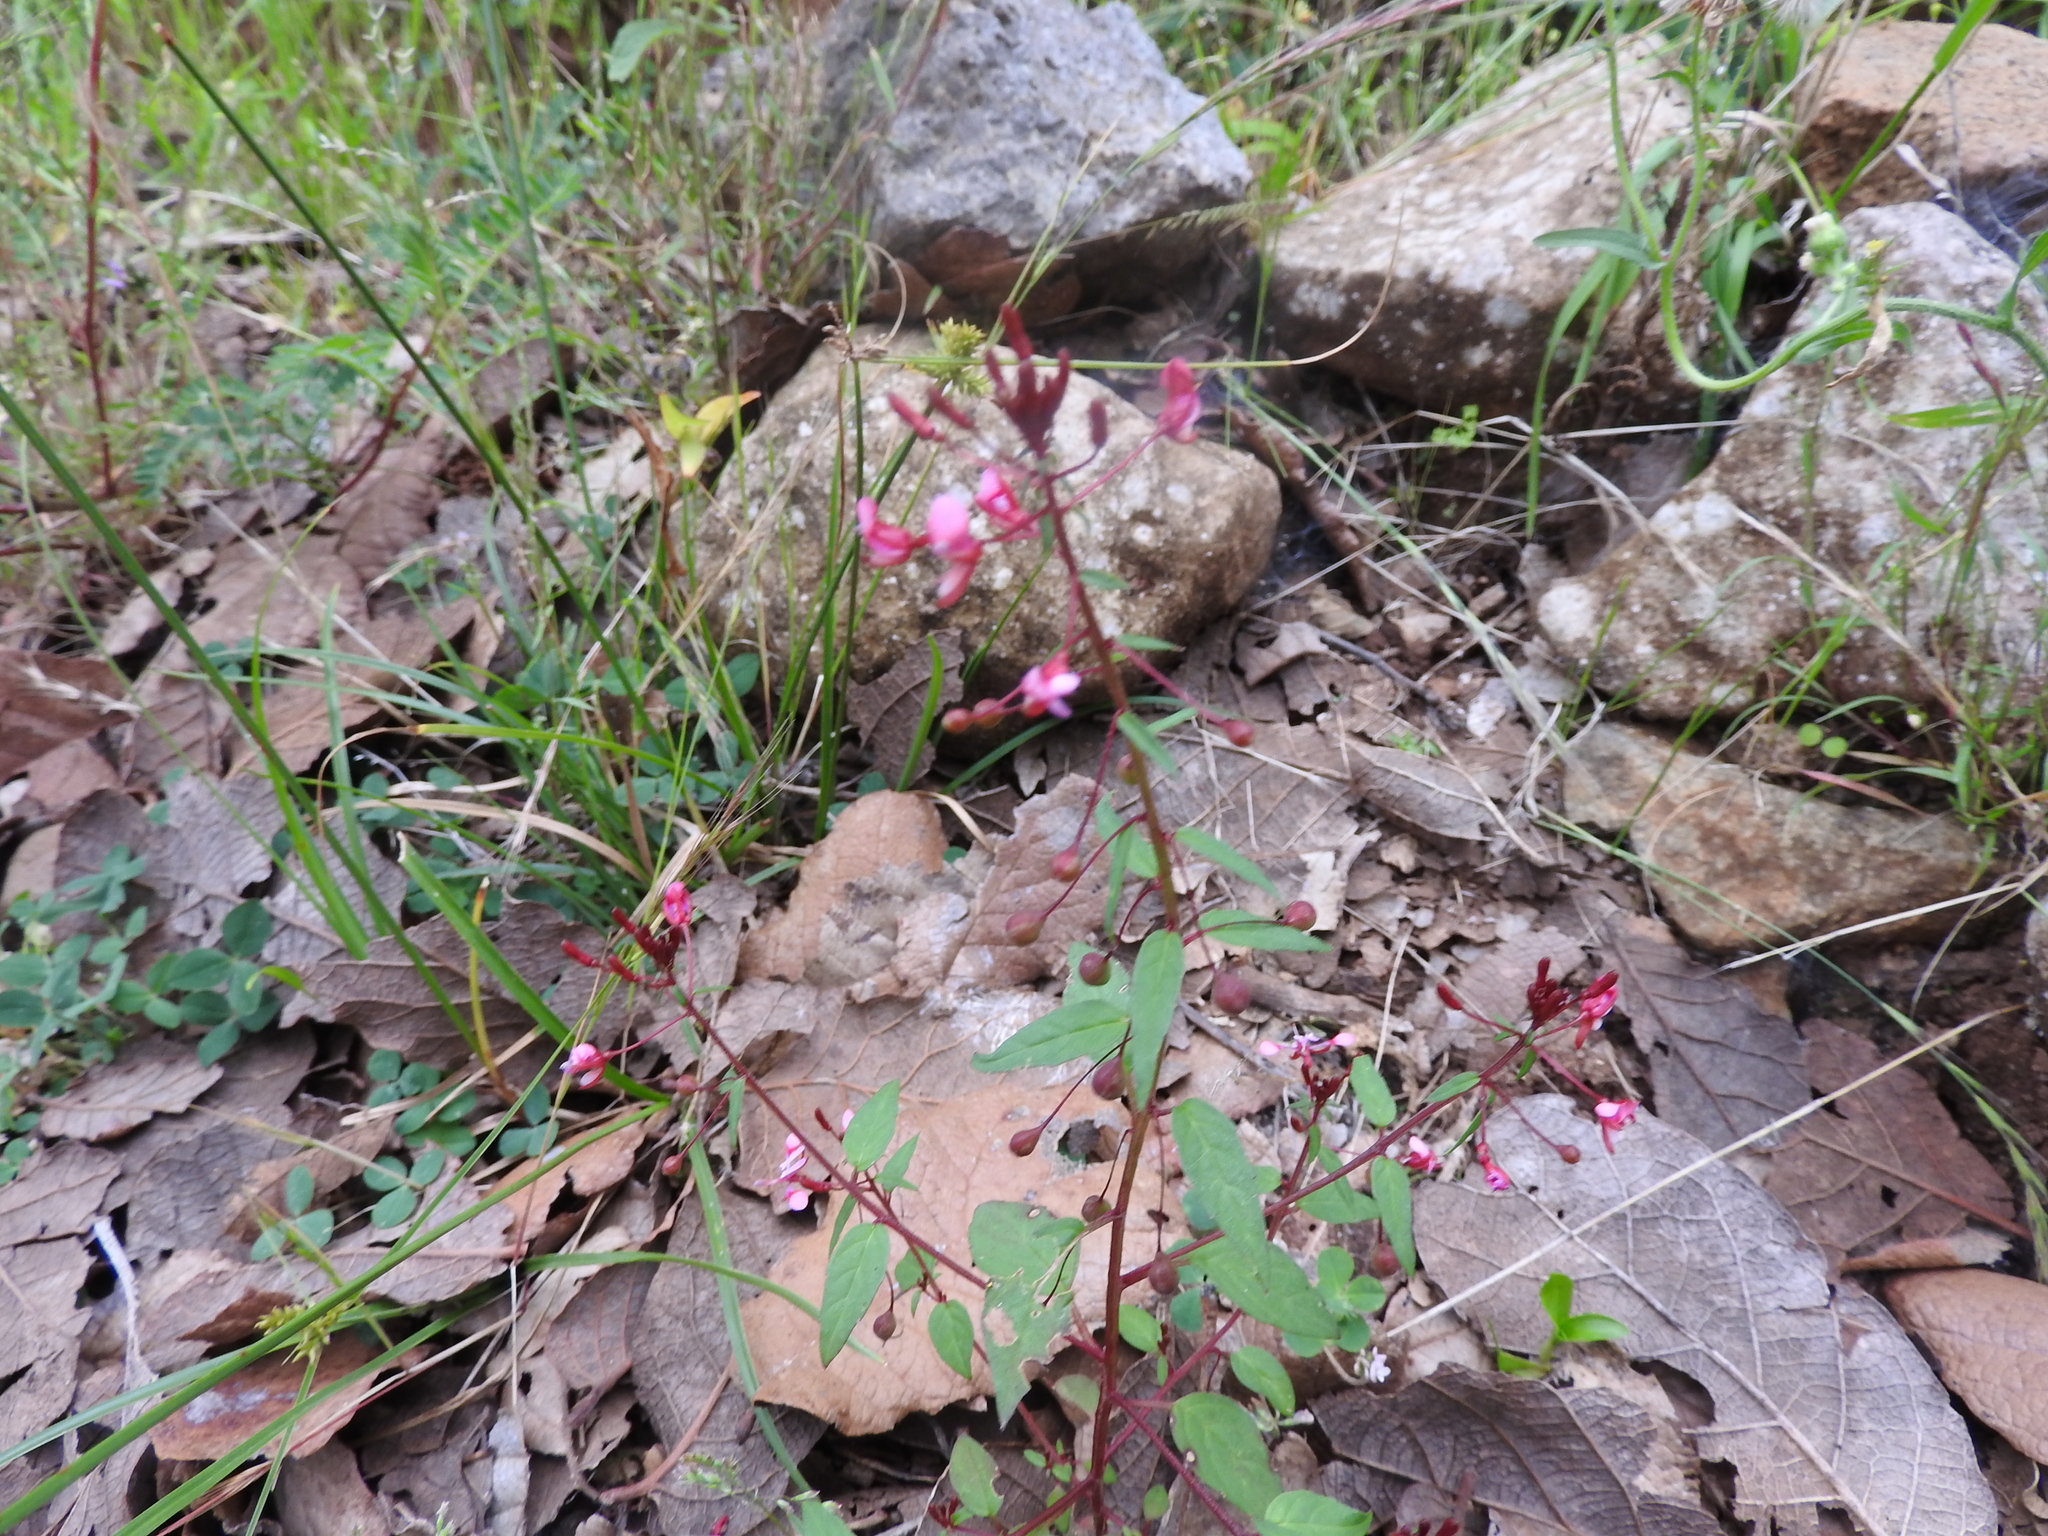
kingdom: Plantae
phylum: Tracheophyta
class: Magnoliopsida
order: Myrtales
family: Onagraceae
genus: Lopezia
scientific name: Lopezia racemosa
